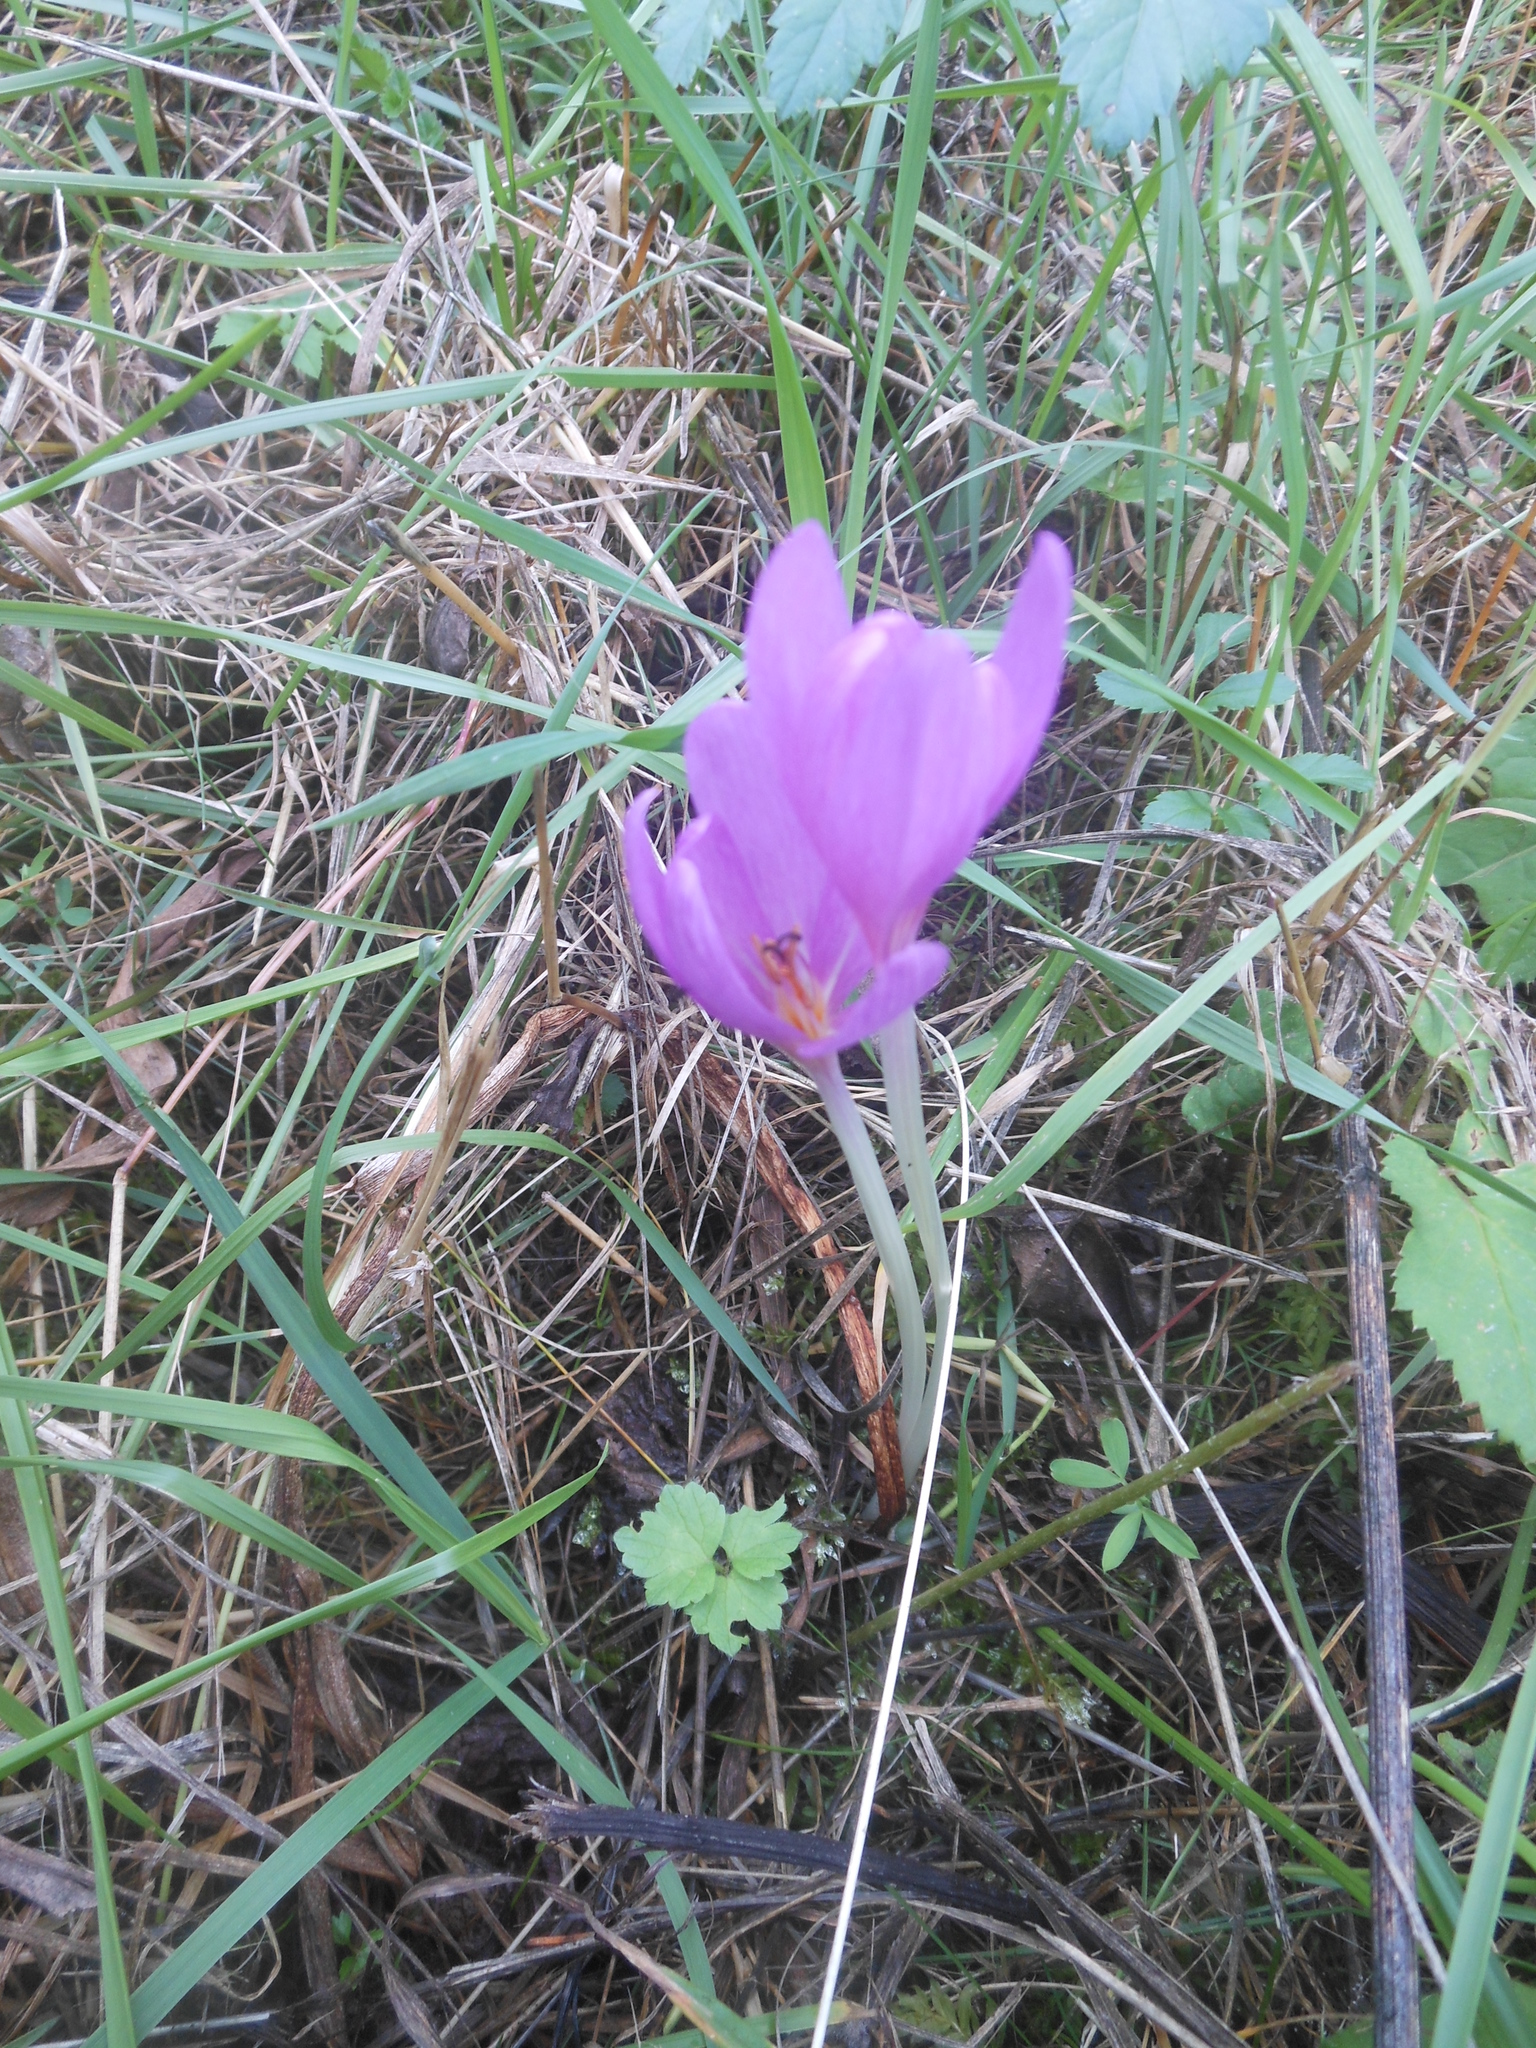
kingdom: Plantae
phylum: Tracheophyta
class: Liliopsida
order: Liliales
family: Colchicaceae
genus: Colchicum
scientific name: Colchicum autumnale
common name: Autumn crocus
